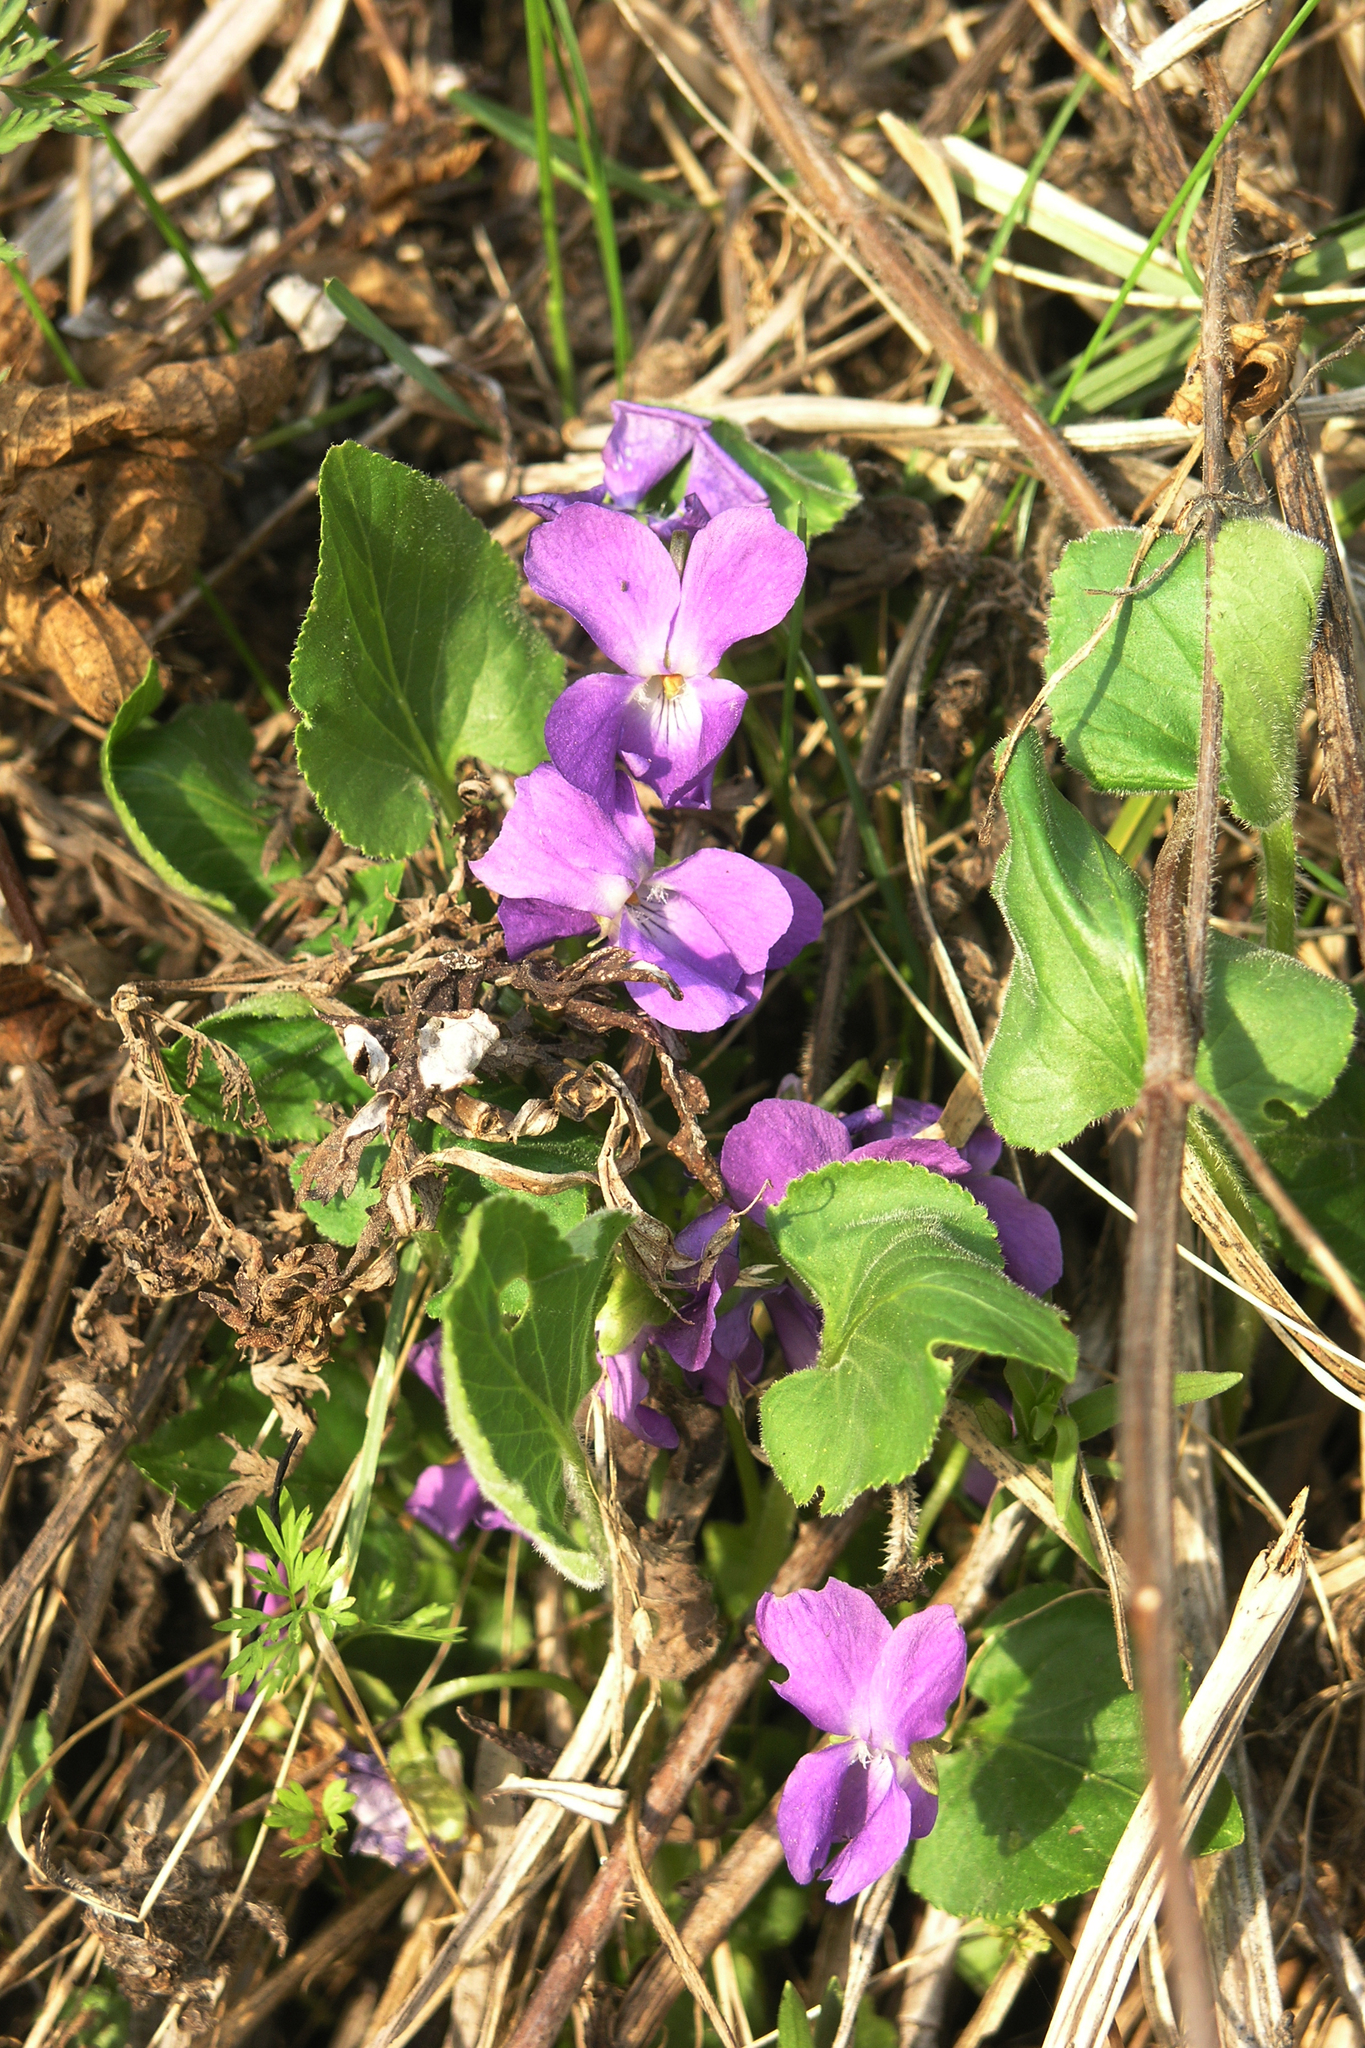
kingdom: Plantae
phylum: Tracheophyta
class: Magnoliopsida
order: Malpighiales
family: Violaceae
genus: Viola
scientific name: Viola hirta
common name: Hairy violet
